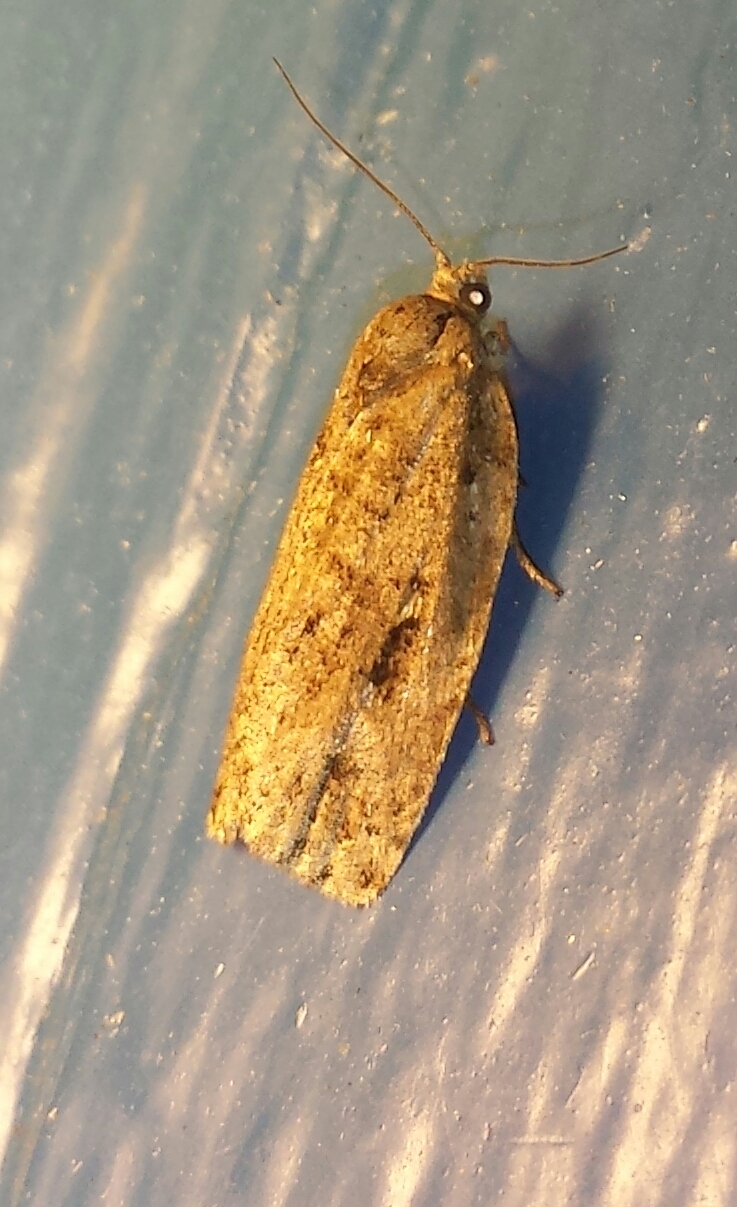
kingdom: Animalia
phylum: Arthropoda
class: Insecta
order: Lepidoptera
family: Tortricidae
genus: Choristoneura
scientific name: Choristoneura fumiferana
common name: Spruce budworm
